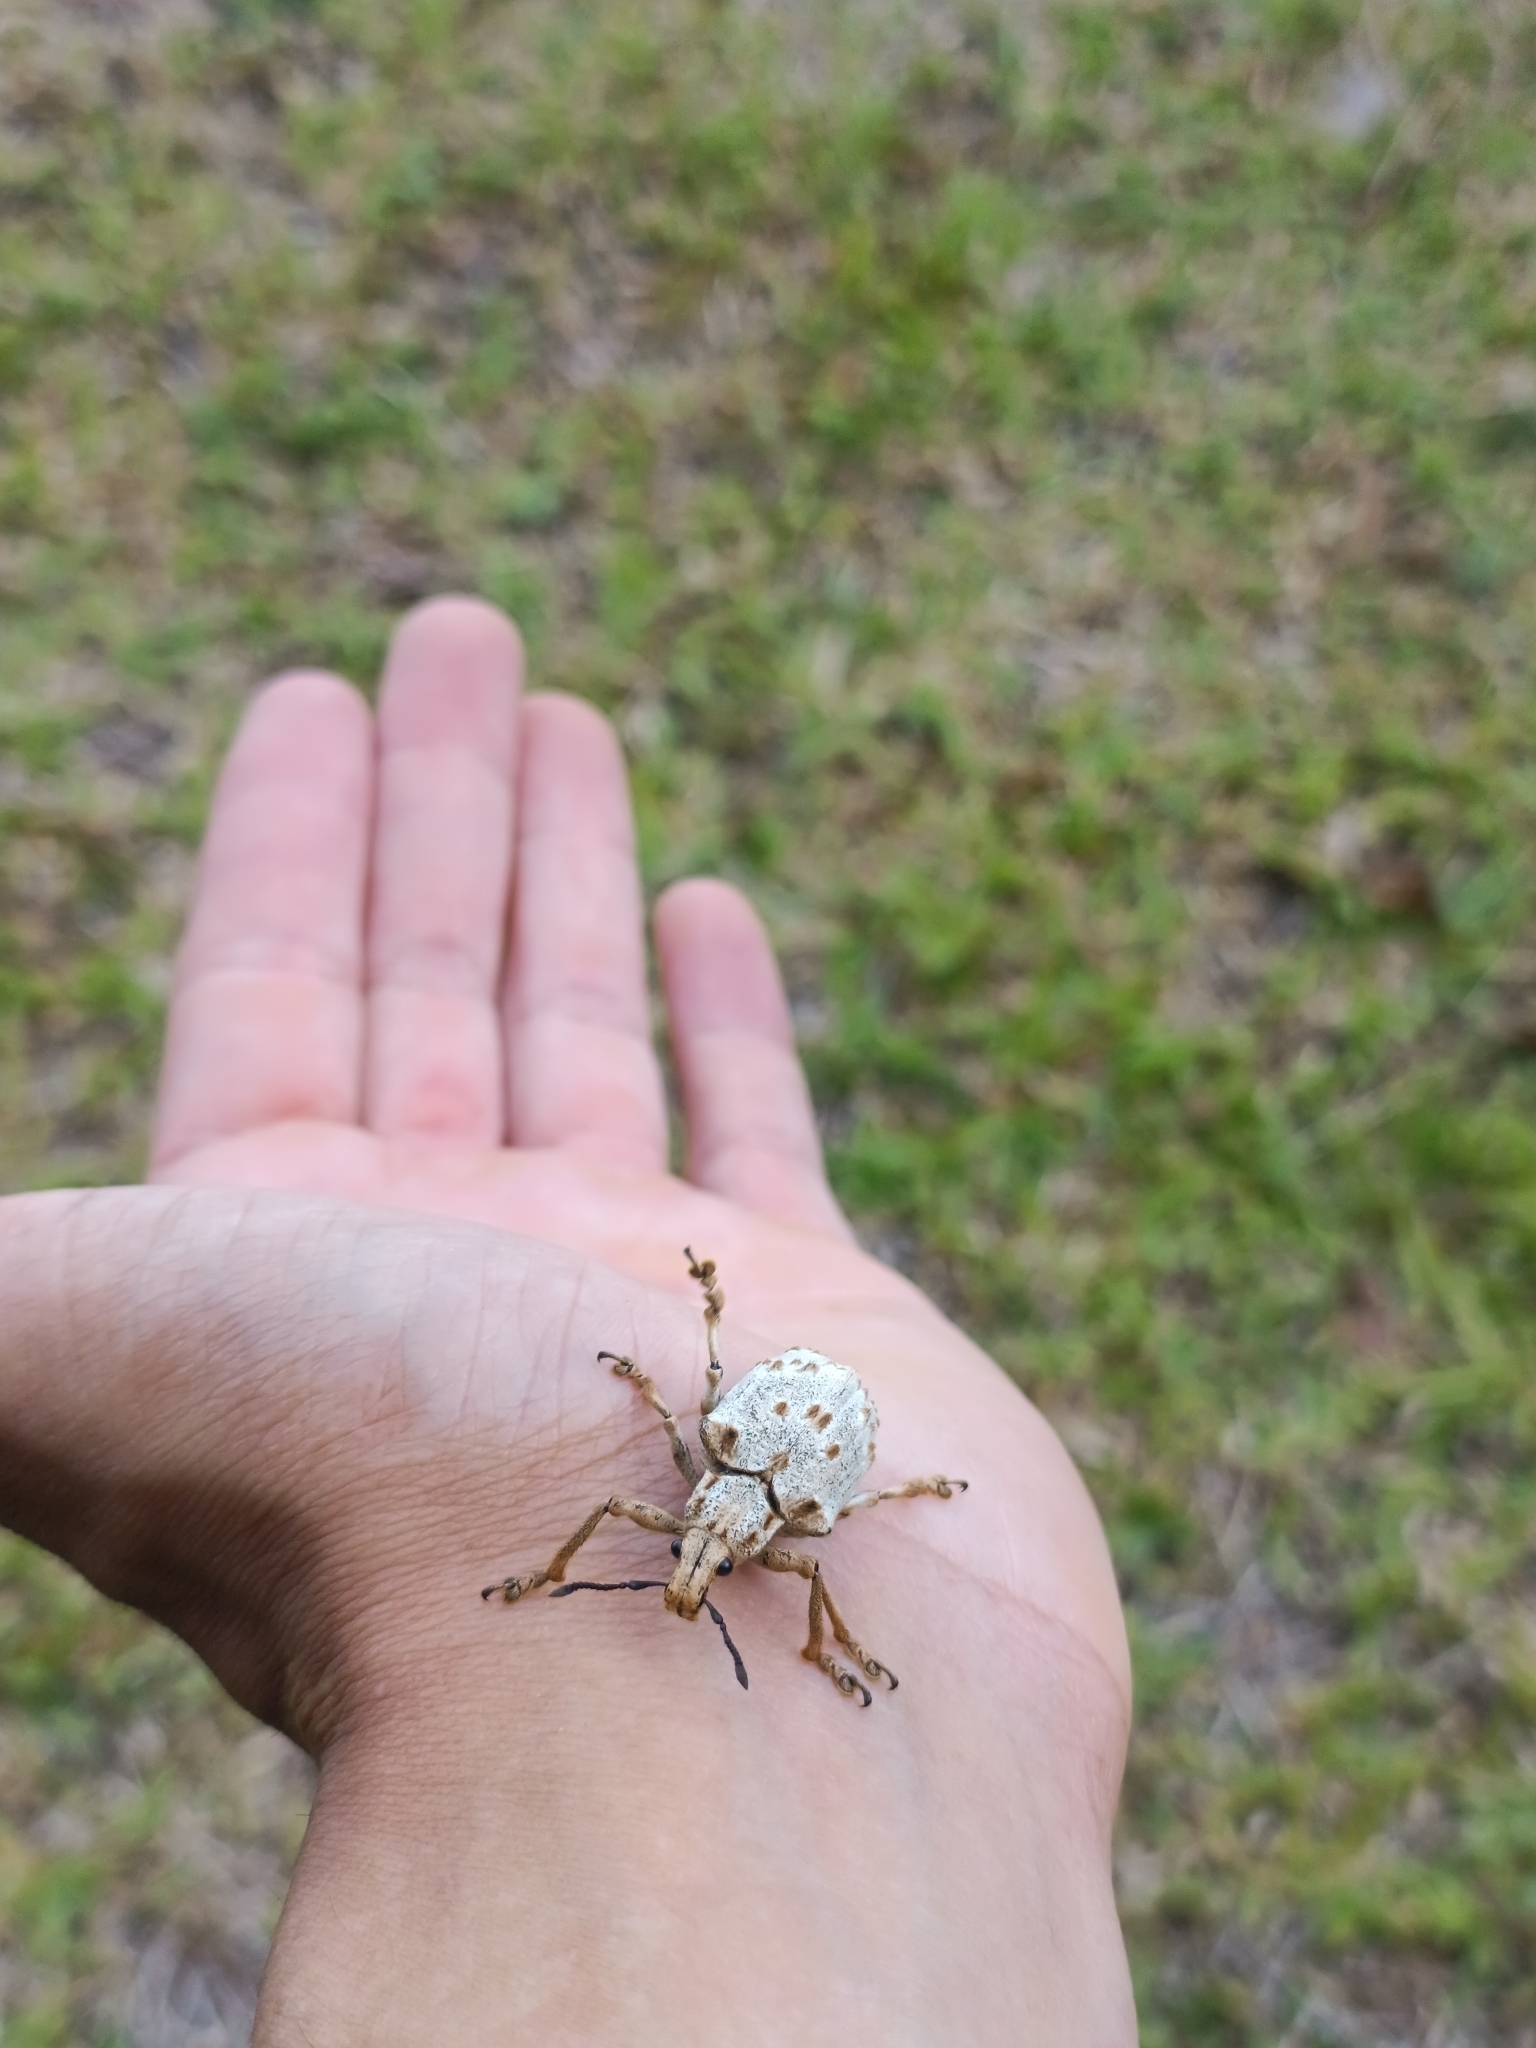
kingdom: Animalia
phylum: Arthropoda
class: Insecta
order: Coleoptera
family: Curculionidae
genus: Briarius
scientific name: Briarius augustus
